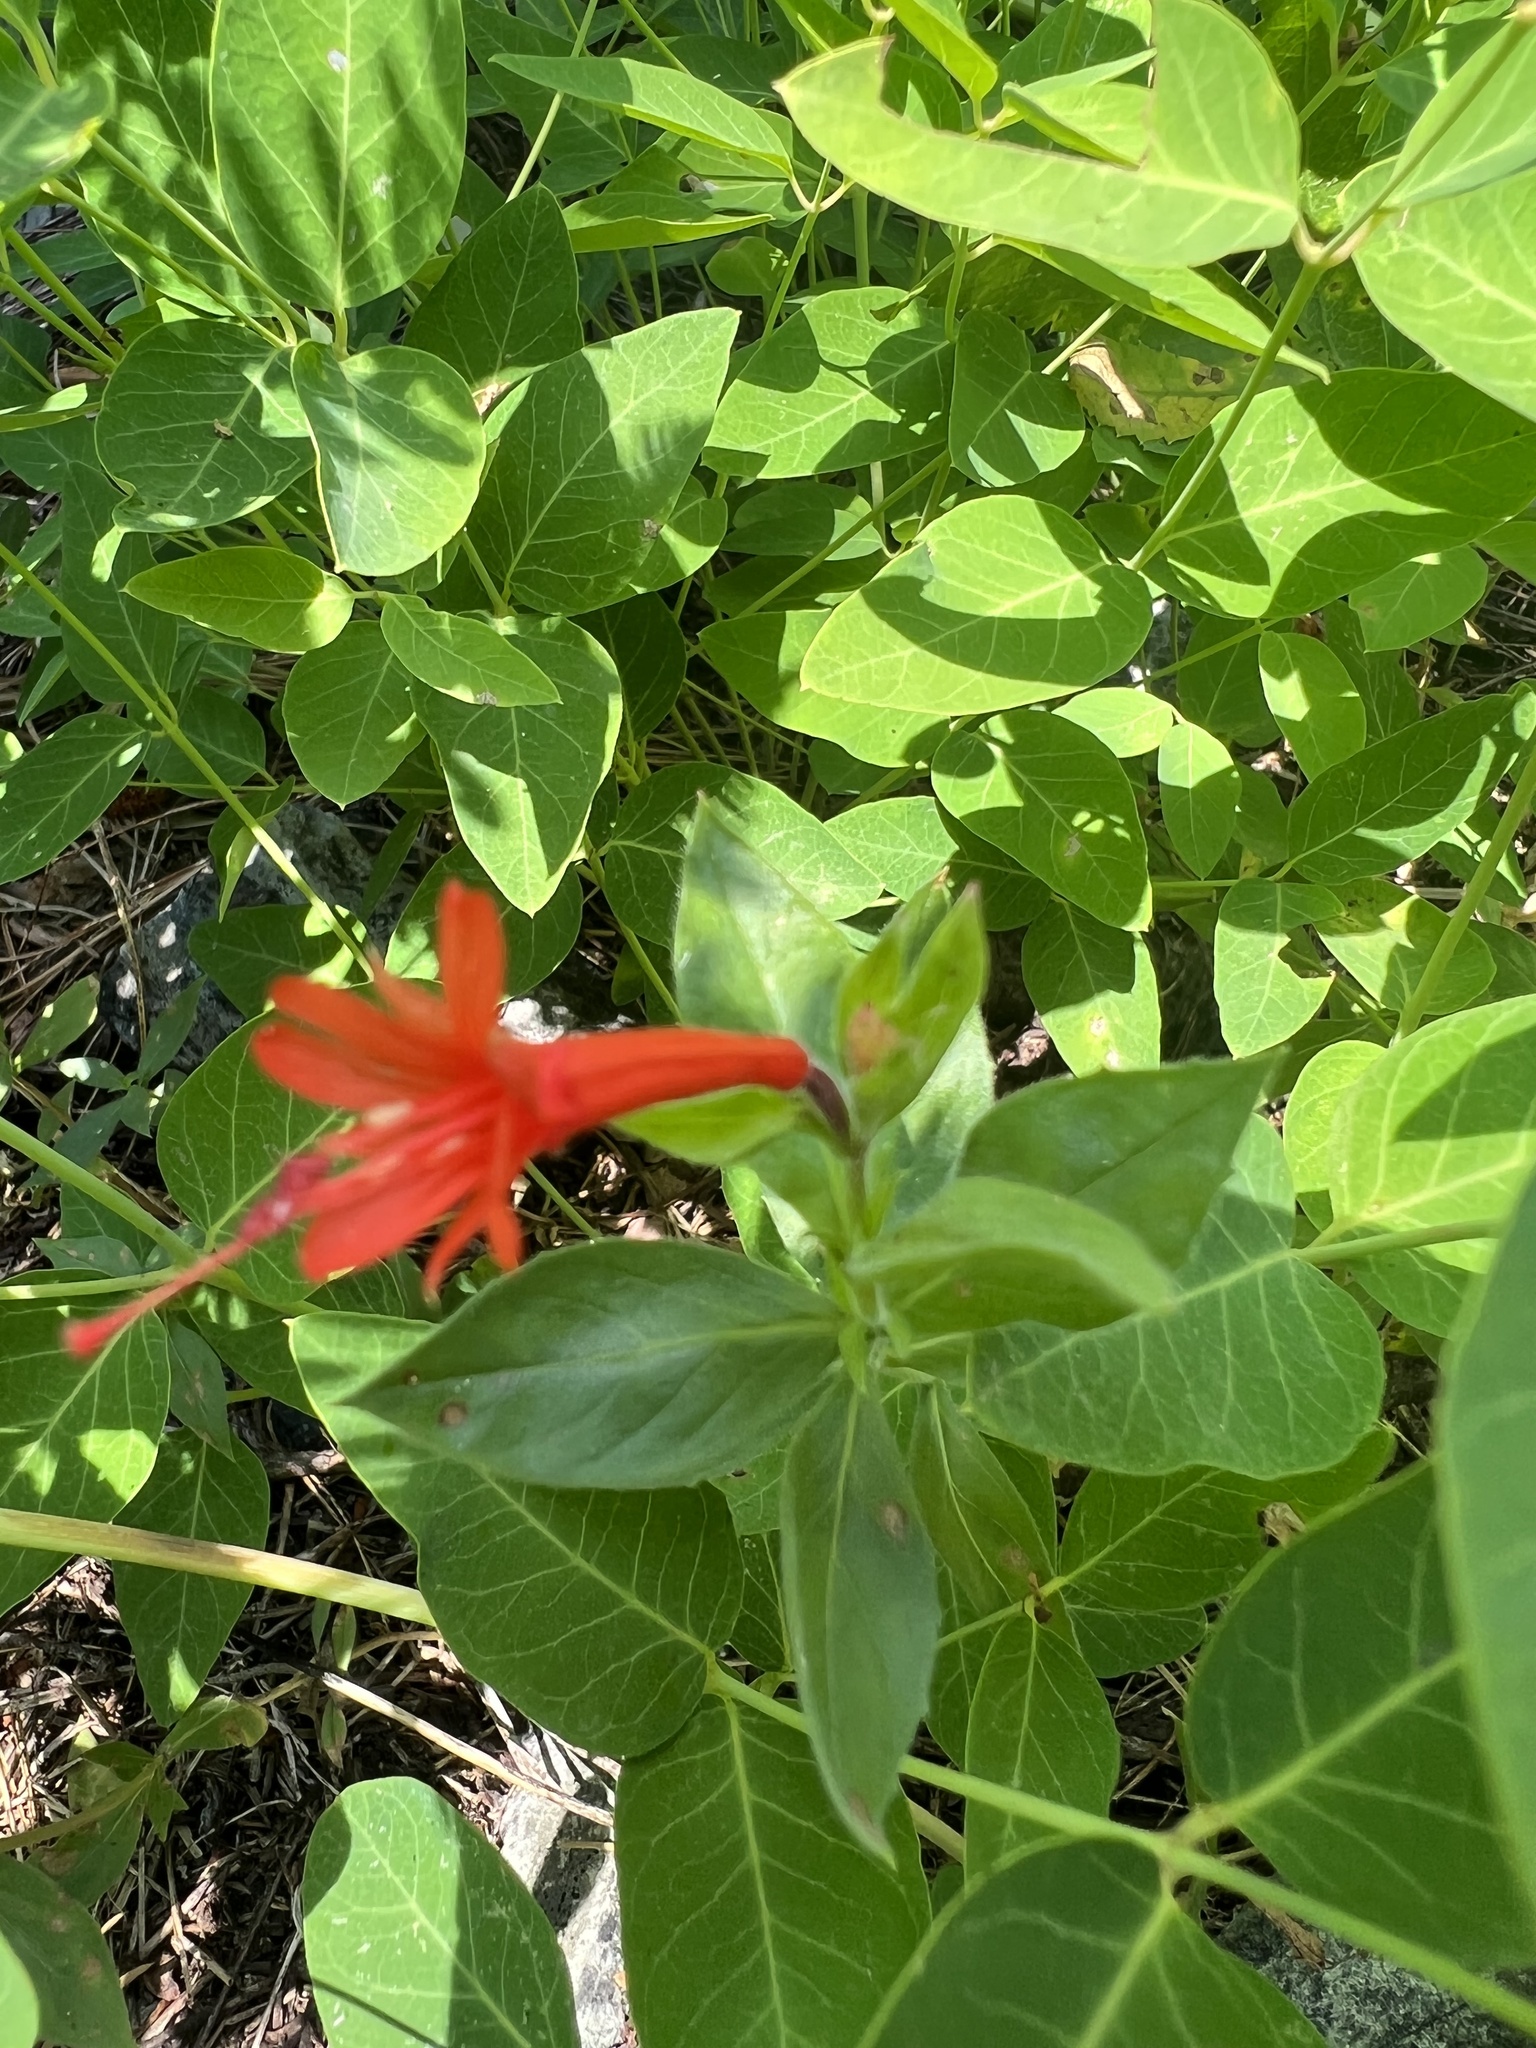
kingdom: Plantae
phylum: Tracheophyta
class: Magnoliopsida
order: Myrtales
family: Onagraceae
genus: Epilobium
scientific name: Epilobium canum
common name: California-fuchsia
